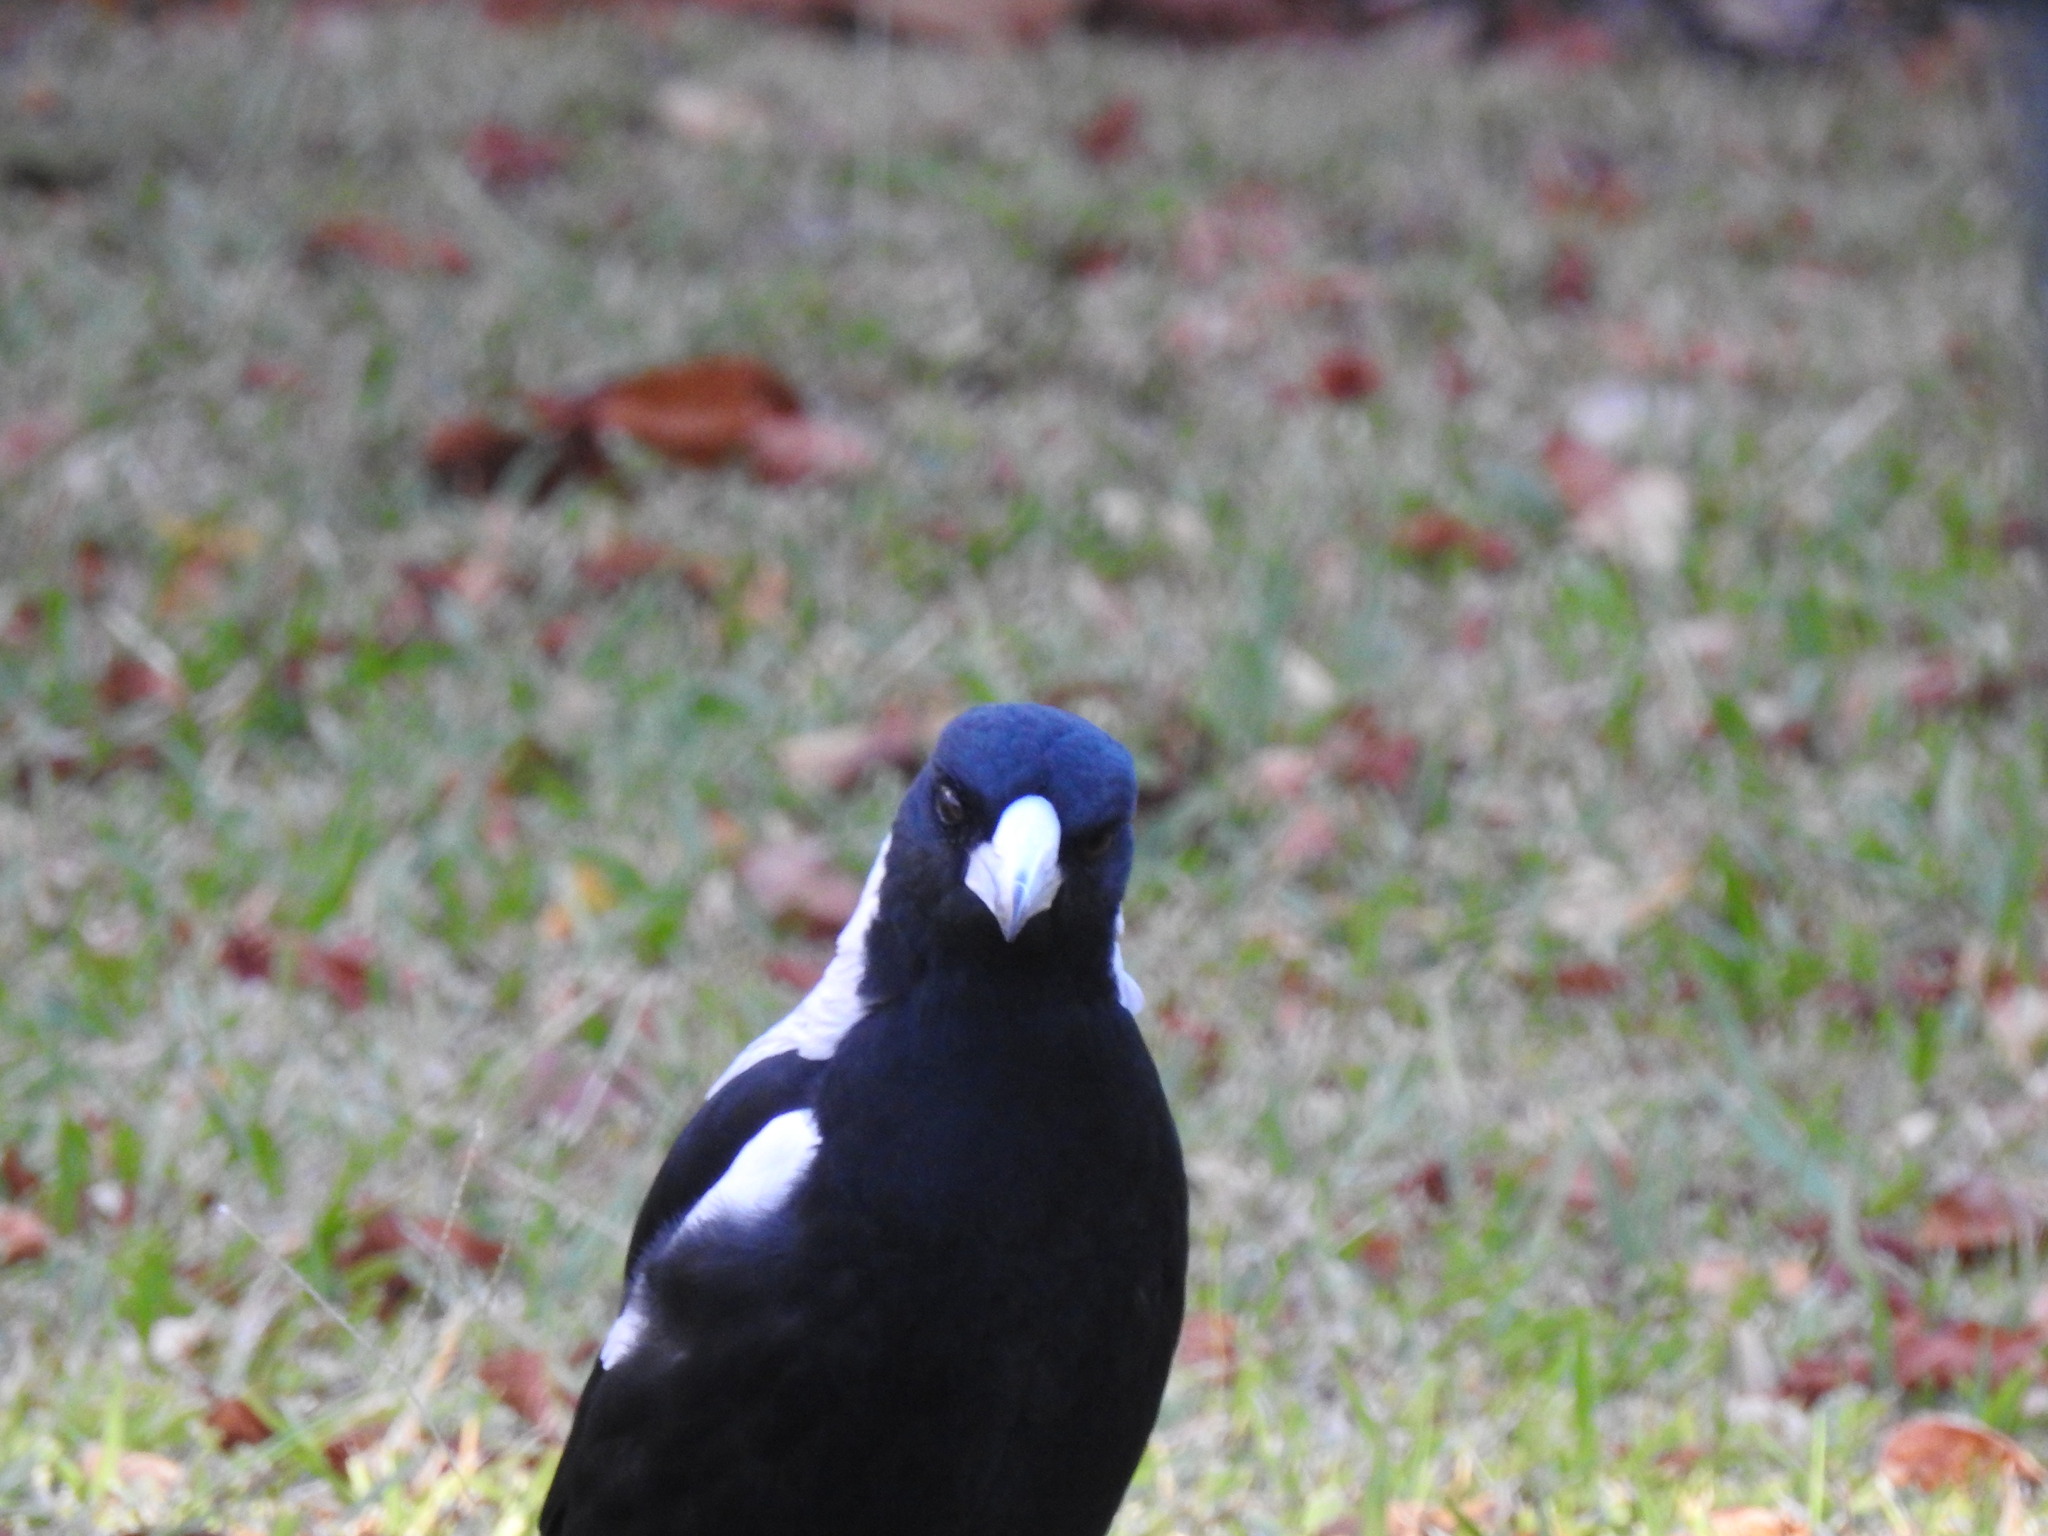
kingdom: Animalia
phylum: Chordata
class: Aves
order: Passeriformes
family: Cracticidae
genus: Gymnorhina
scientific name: Gymnorhina tibicen
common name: Australian magpie
